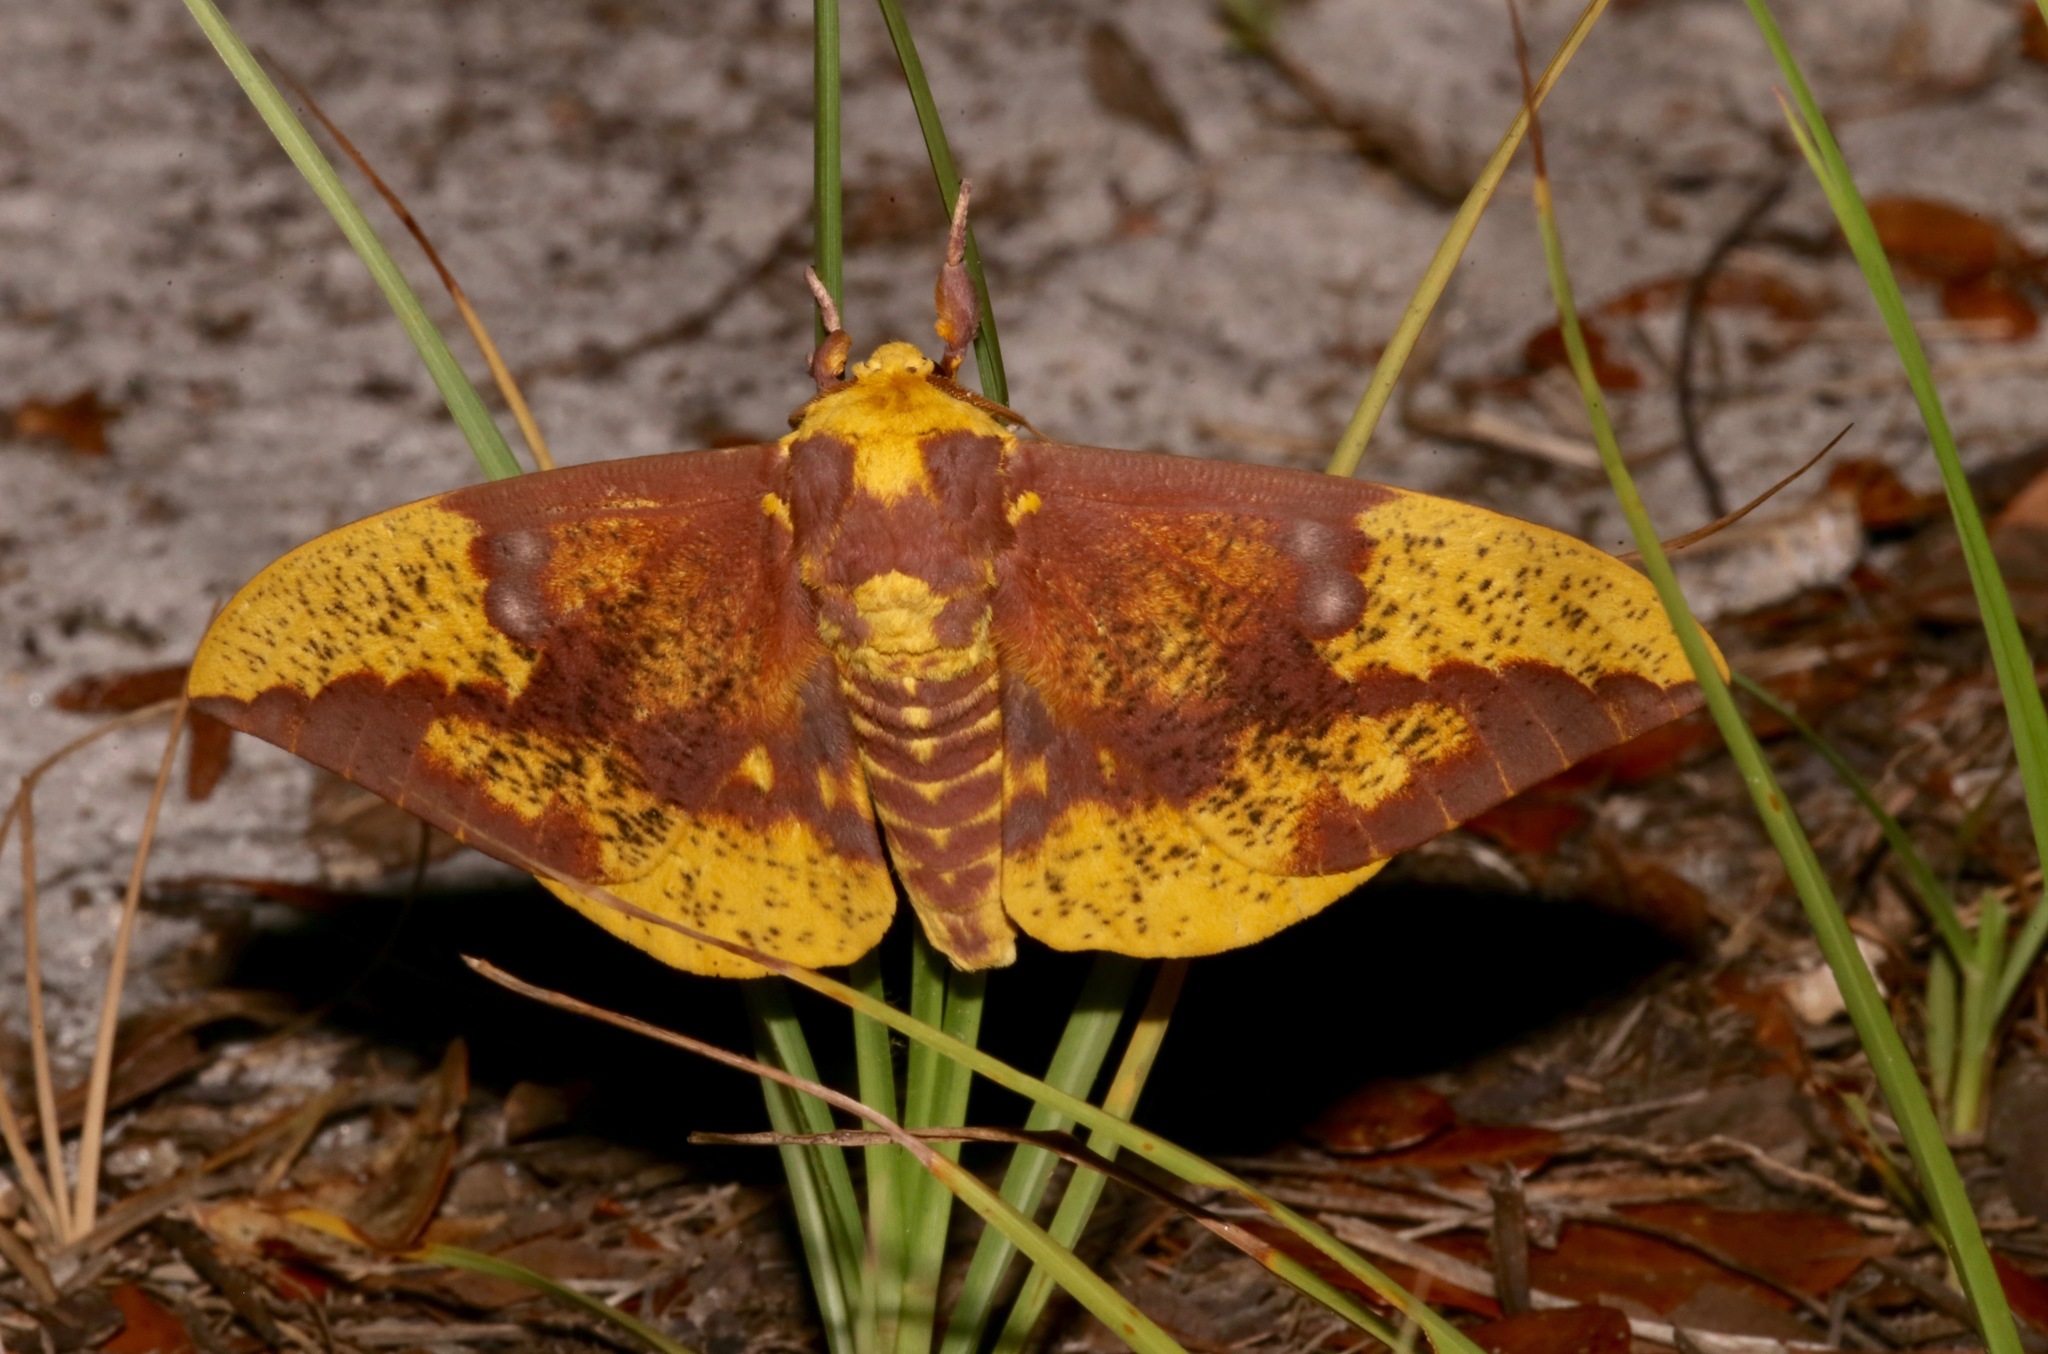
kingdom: Animalia
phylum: Arthropoda
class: Insecta
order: Lepidoptera
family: Saturniidae
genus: Eacles
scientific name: Eacles imperialis
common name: Imperial moth
